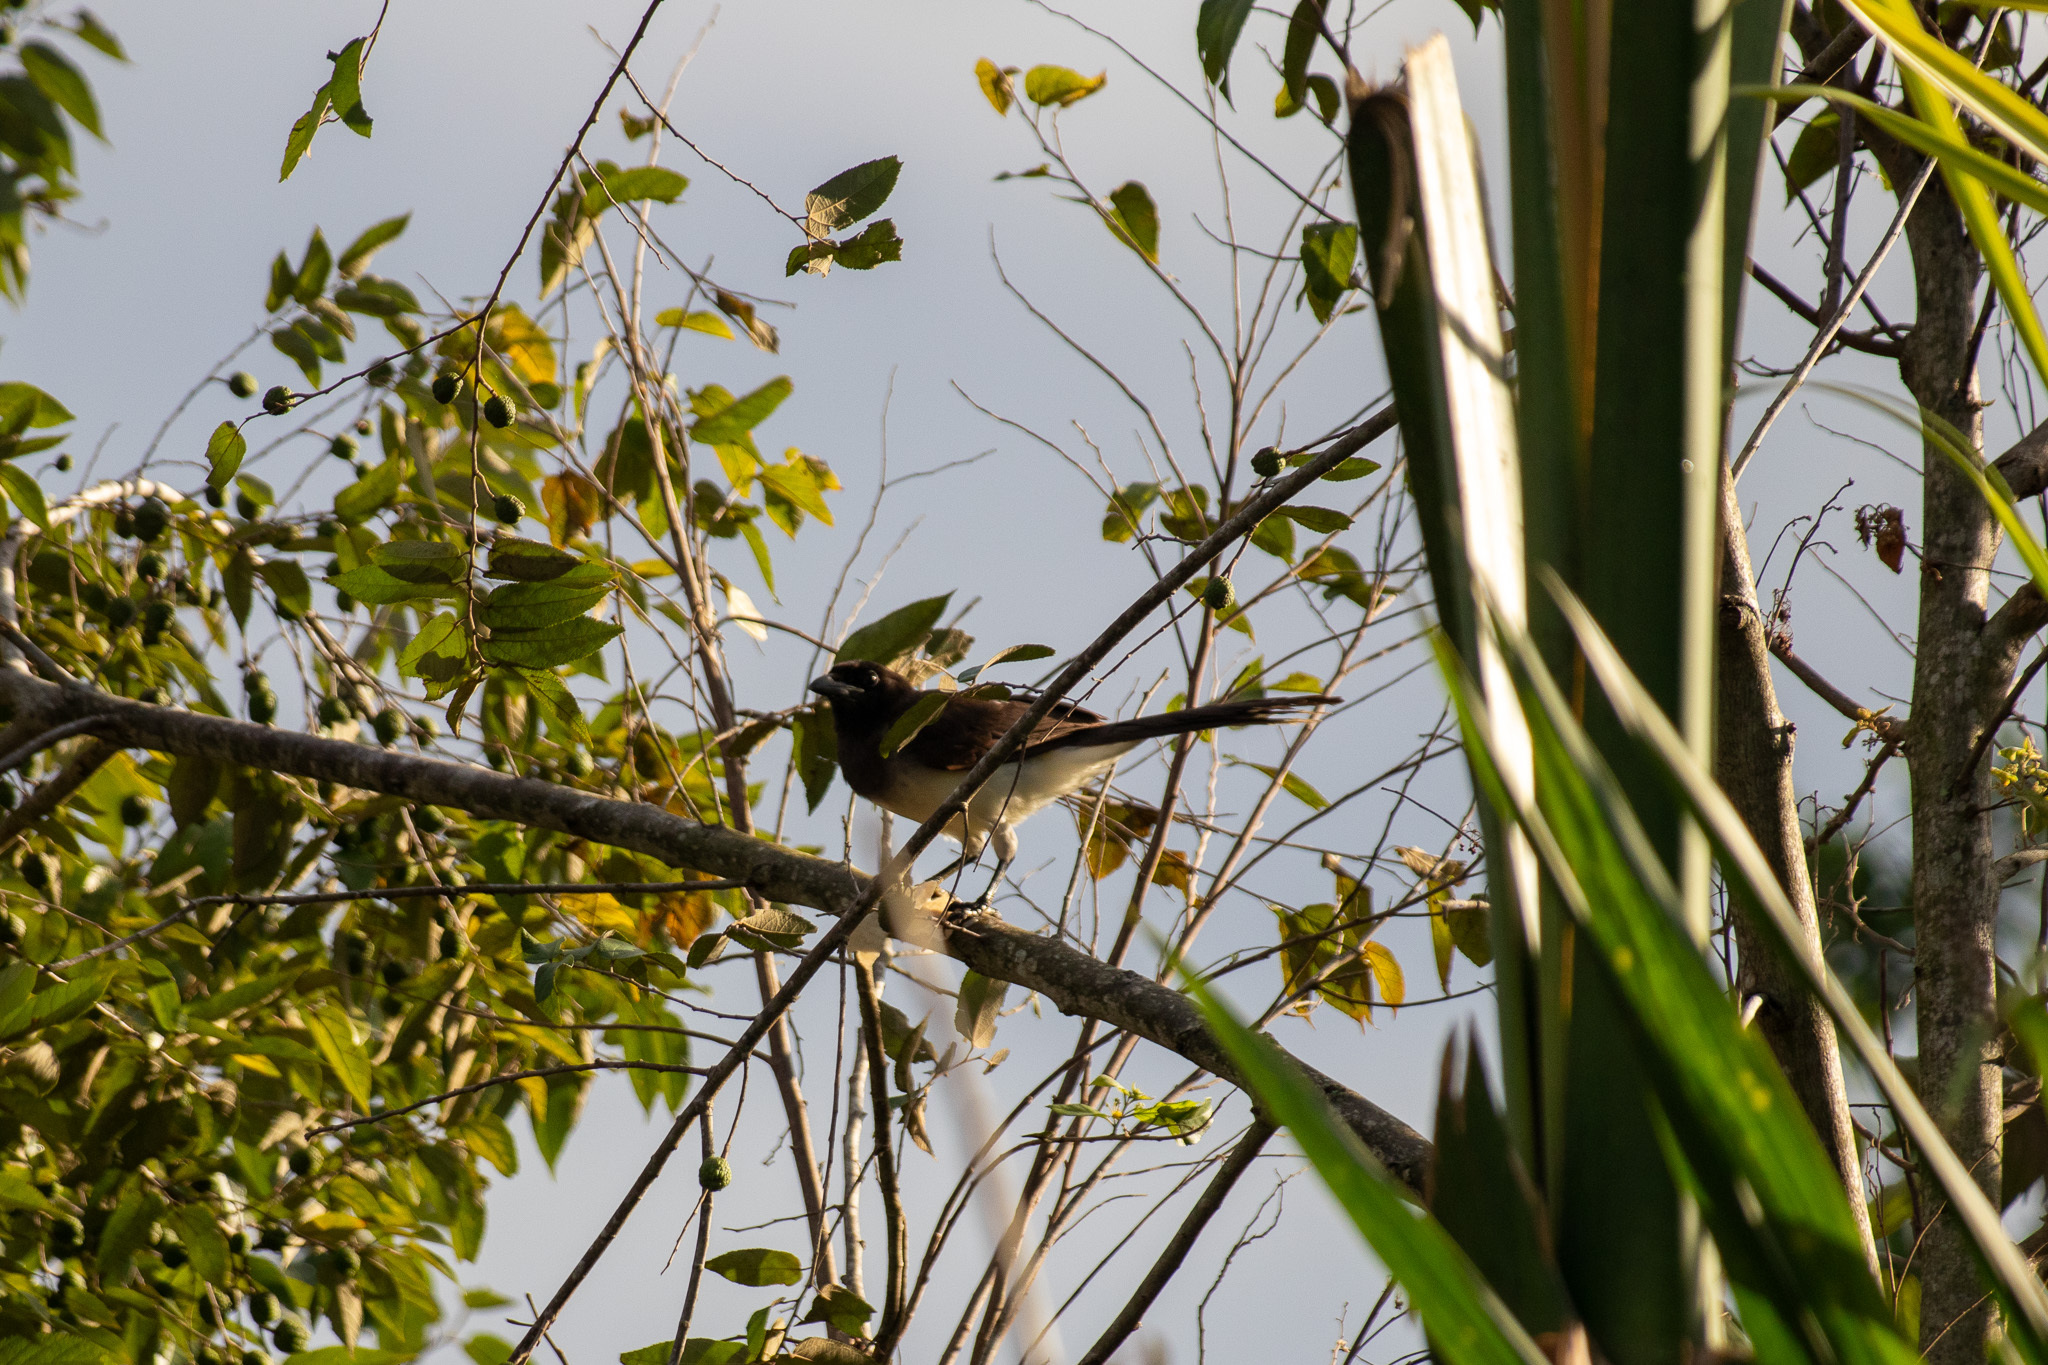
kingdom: Animalia
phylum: Chordata
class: Aves
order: Passeriformes
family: Corvidae
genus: Psilorhinus
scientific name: Psilorhinus morio
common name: Brown jay
